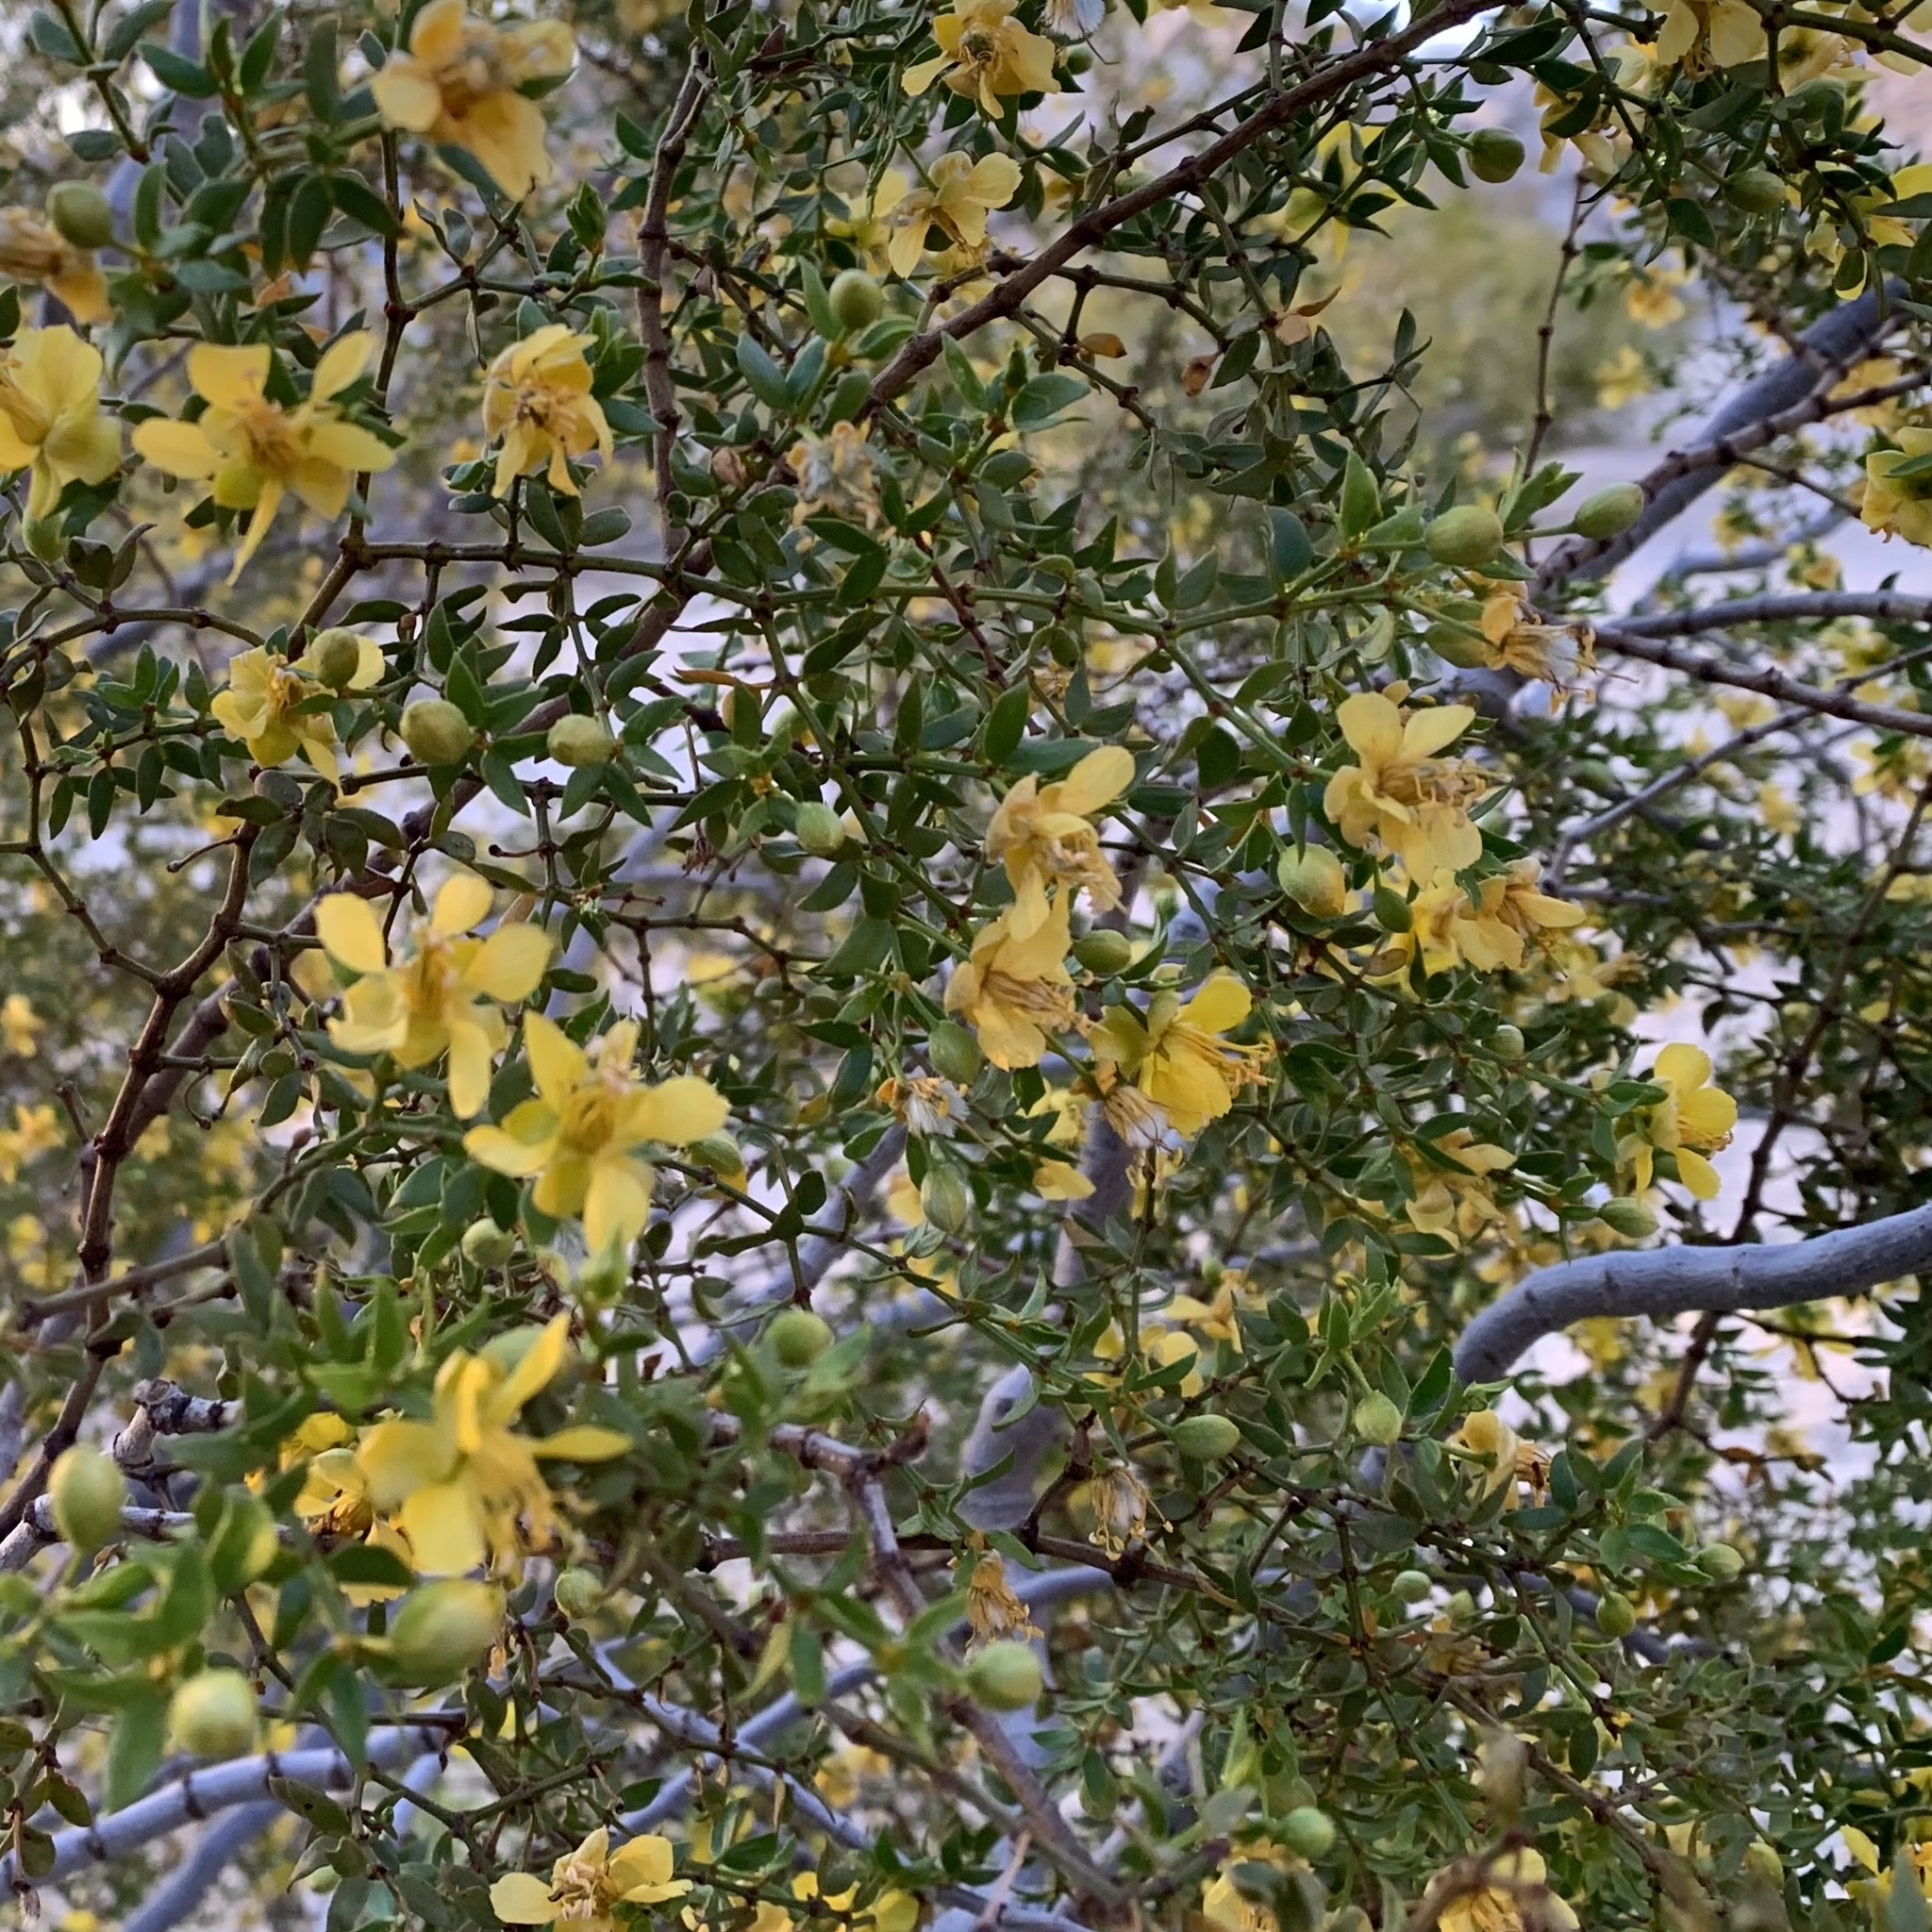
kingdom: Plantae
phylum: Tracheophyta
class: Magnoliopsida
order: Zygophyllales
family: Zygophyllaceae
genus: Larrea
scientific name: Larrea tridentata
